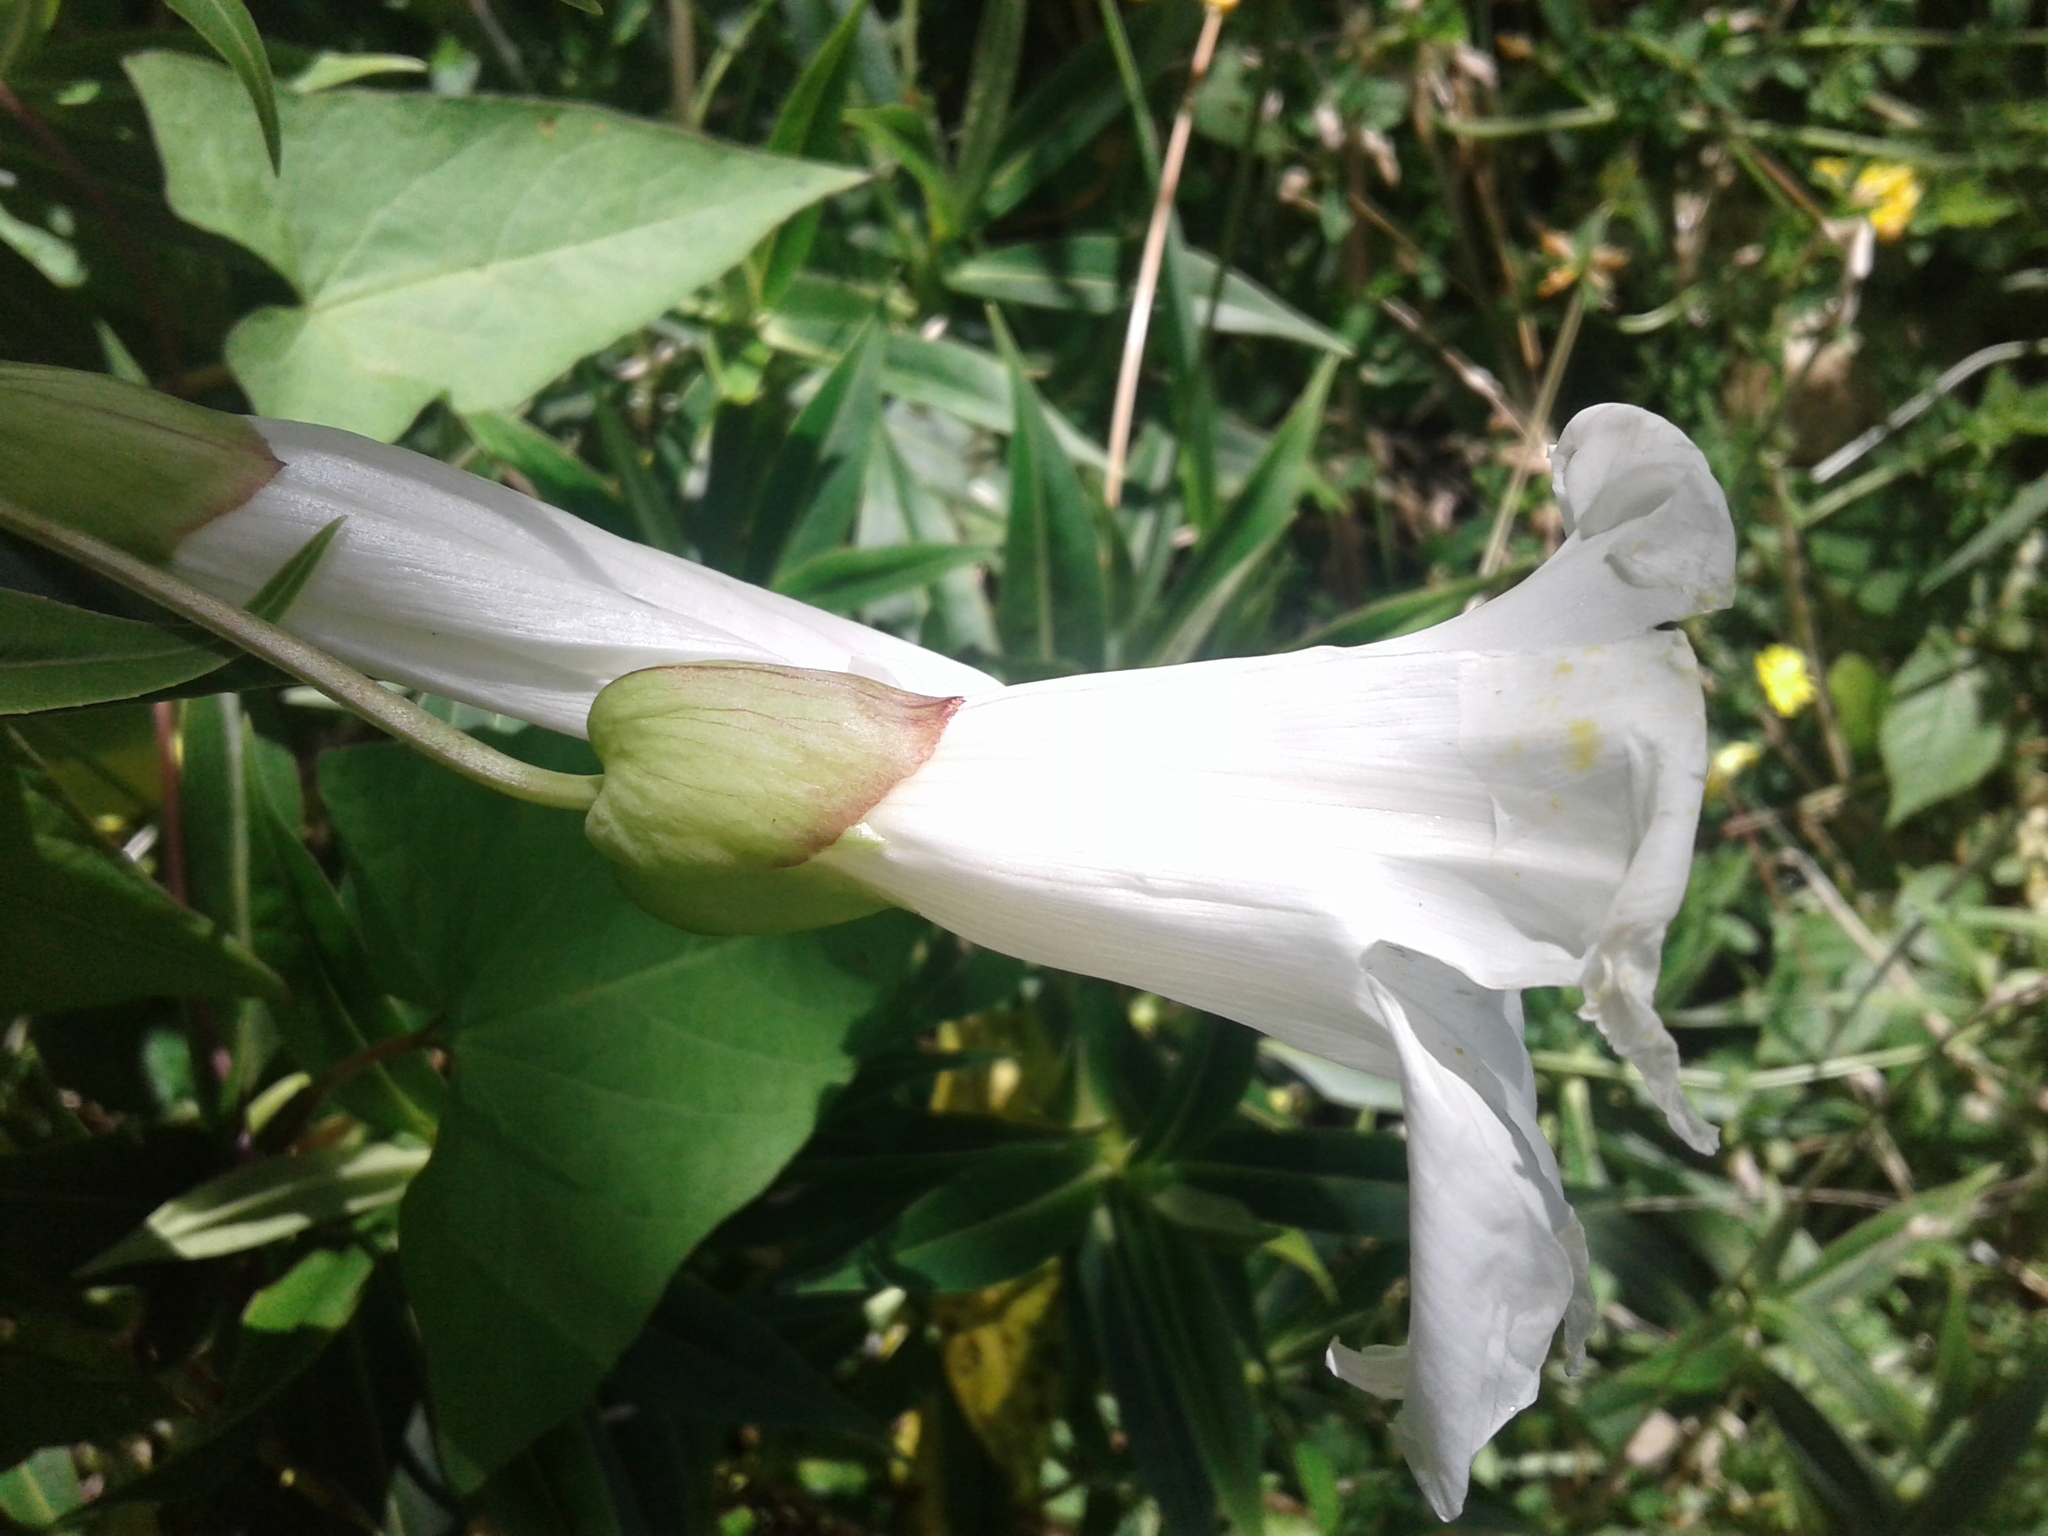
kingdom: Plantae
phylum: Tracheophyta
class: Magnoliopsida
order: Solanales
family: Convolvulaceae
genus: Calystegia
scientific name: Calystegia
